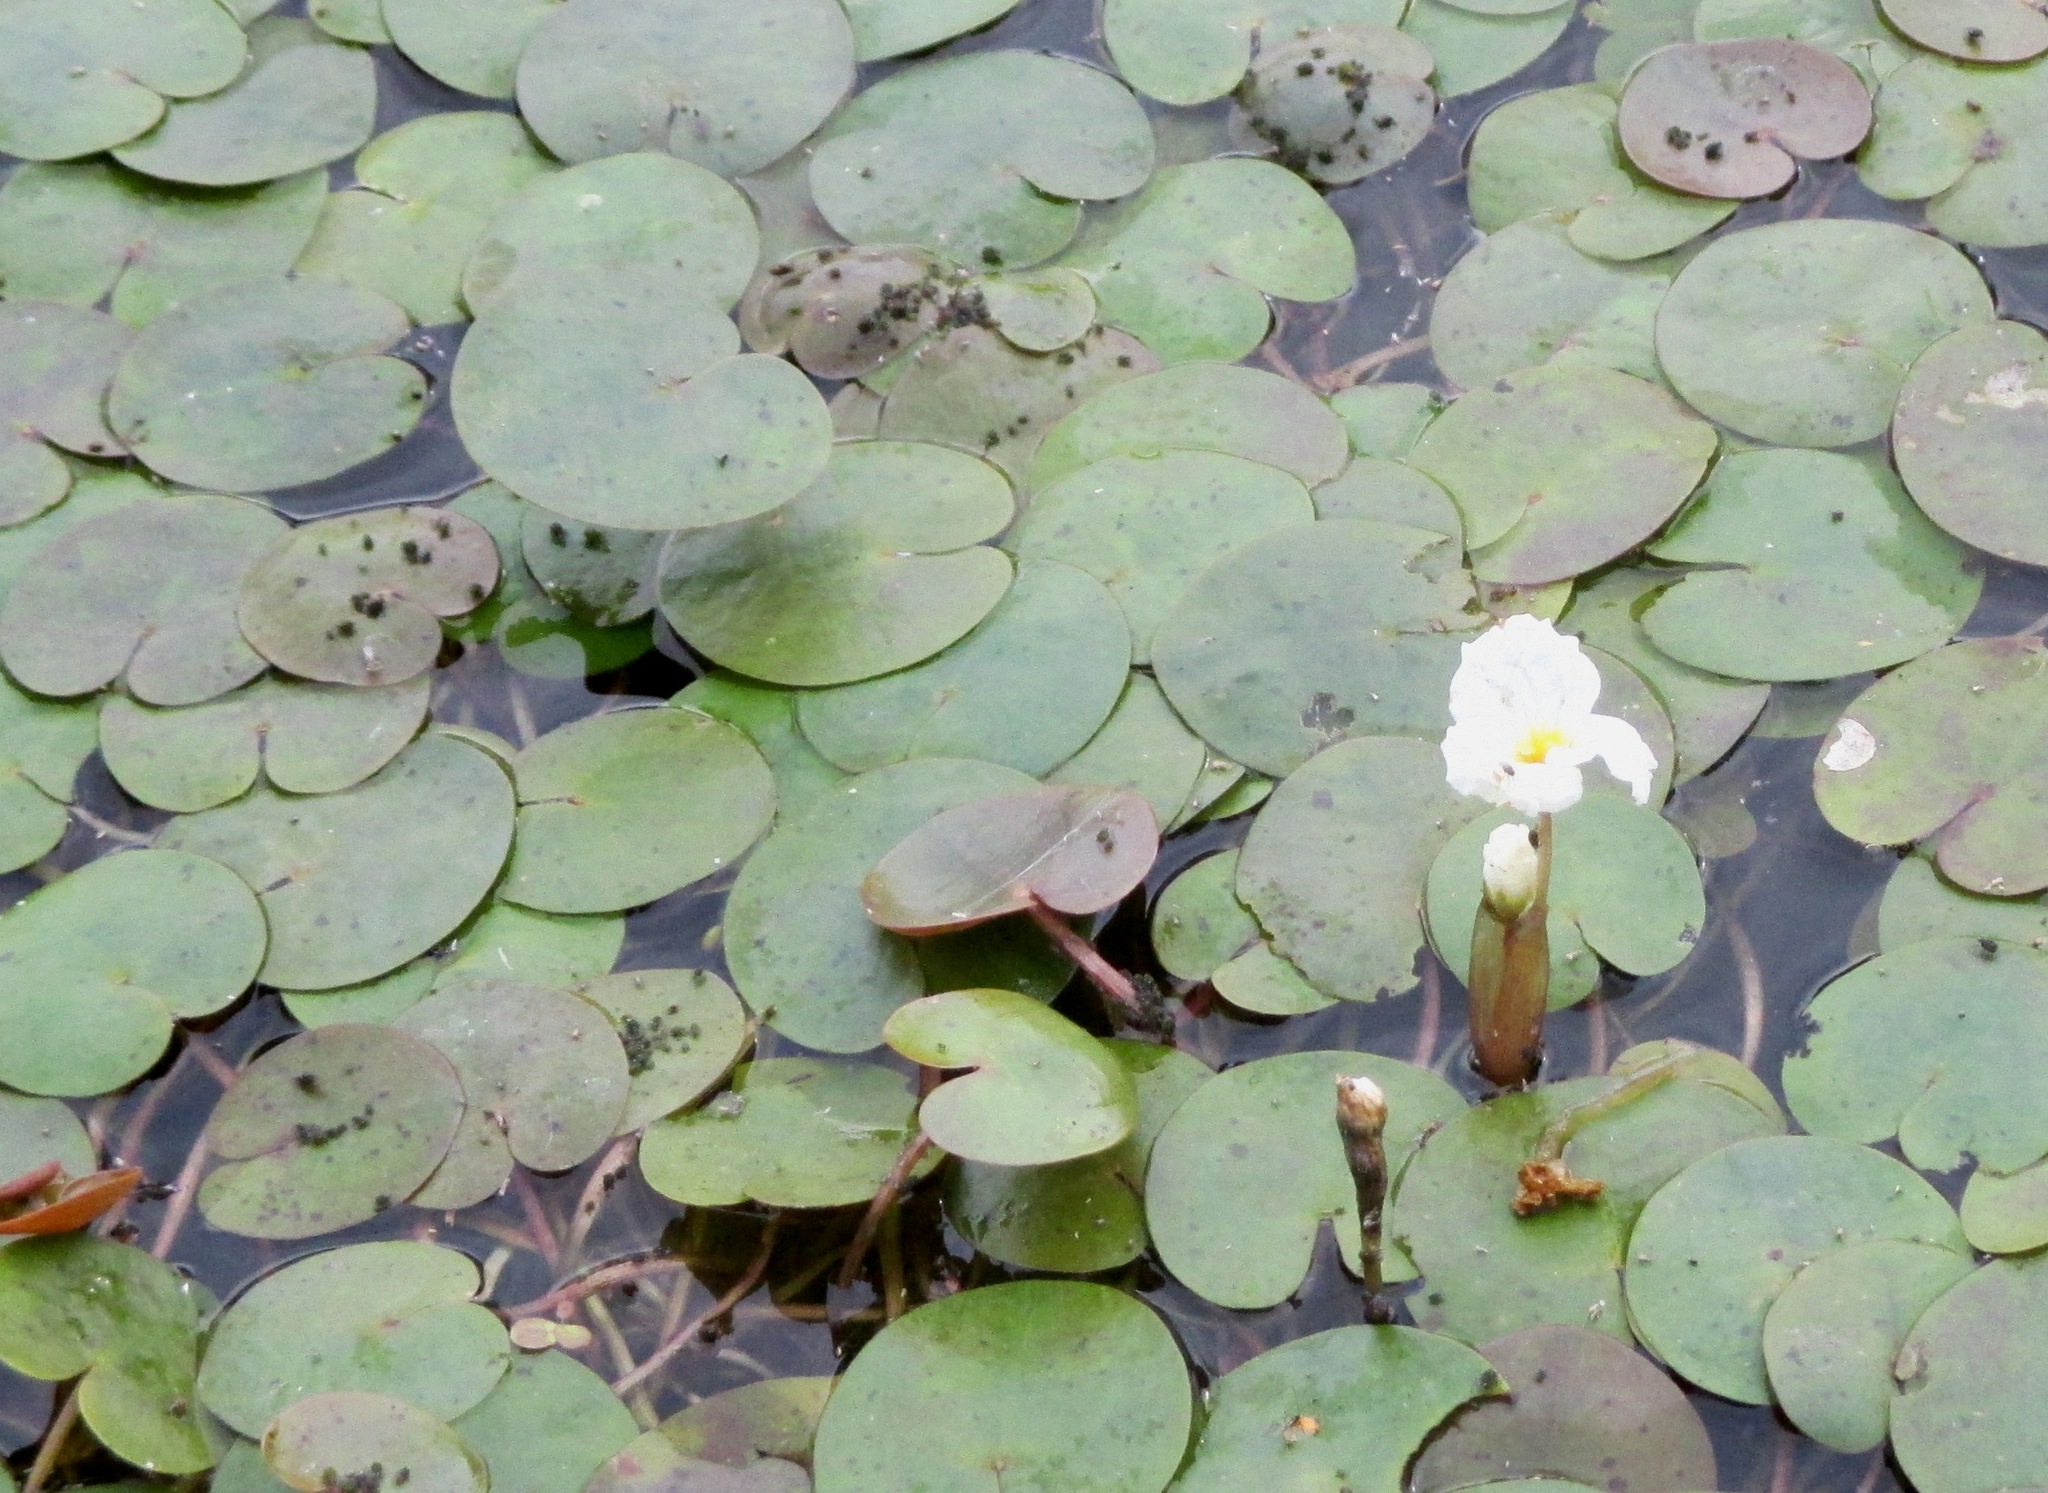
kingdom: Plantae
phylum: Tracheophyta
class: Liliopsida
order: Alismatales
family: Hydrocharitaceae
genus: Hydrocharis
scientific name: Hydrocharis morsus-ranae
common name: Frogbit
